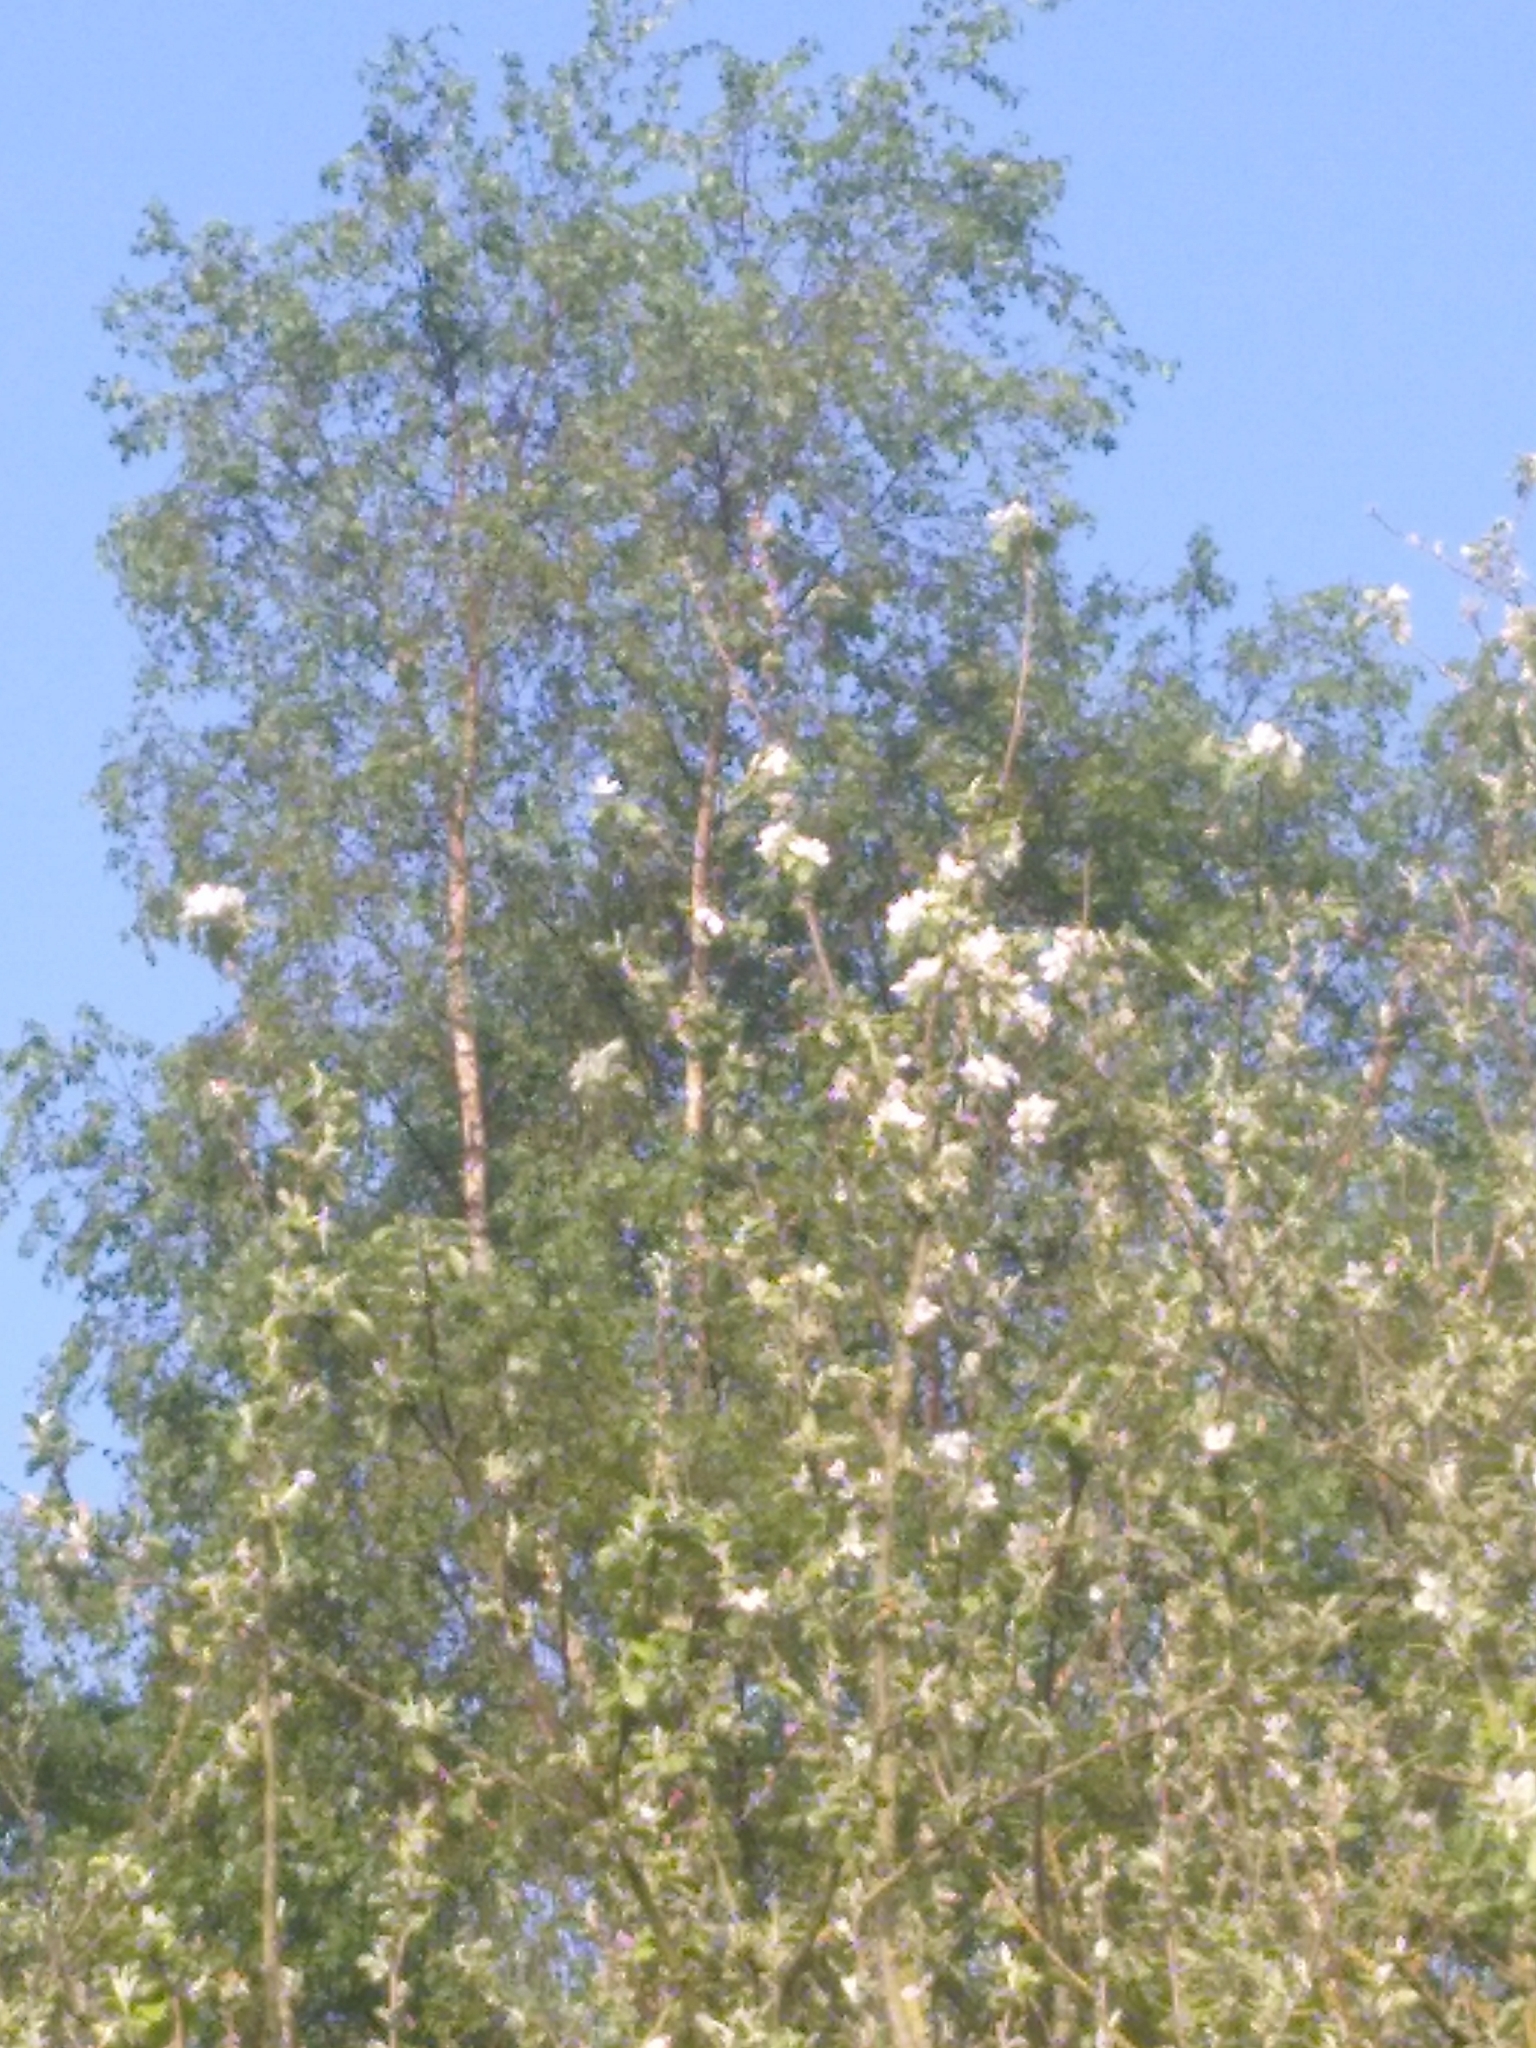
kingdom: Plantae
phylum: Tracheophyta
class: Magnoliopsida
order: Rosales
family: Rosaceae
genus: Malus
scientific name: Malus domestica
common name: Apple
